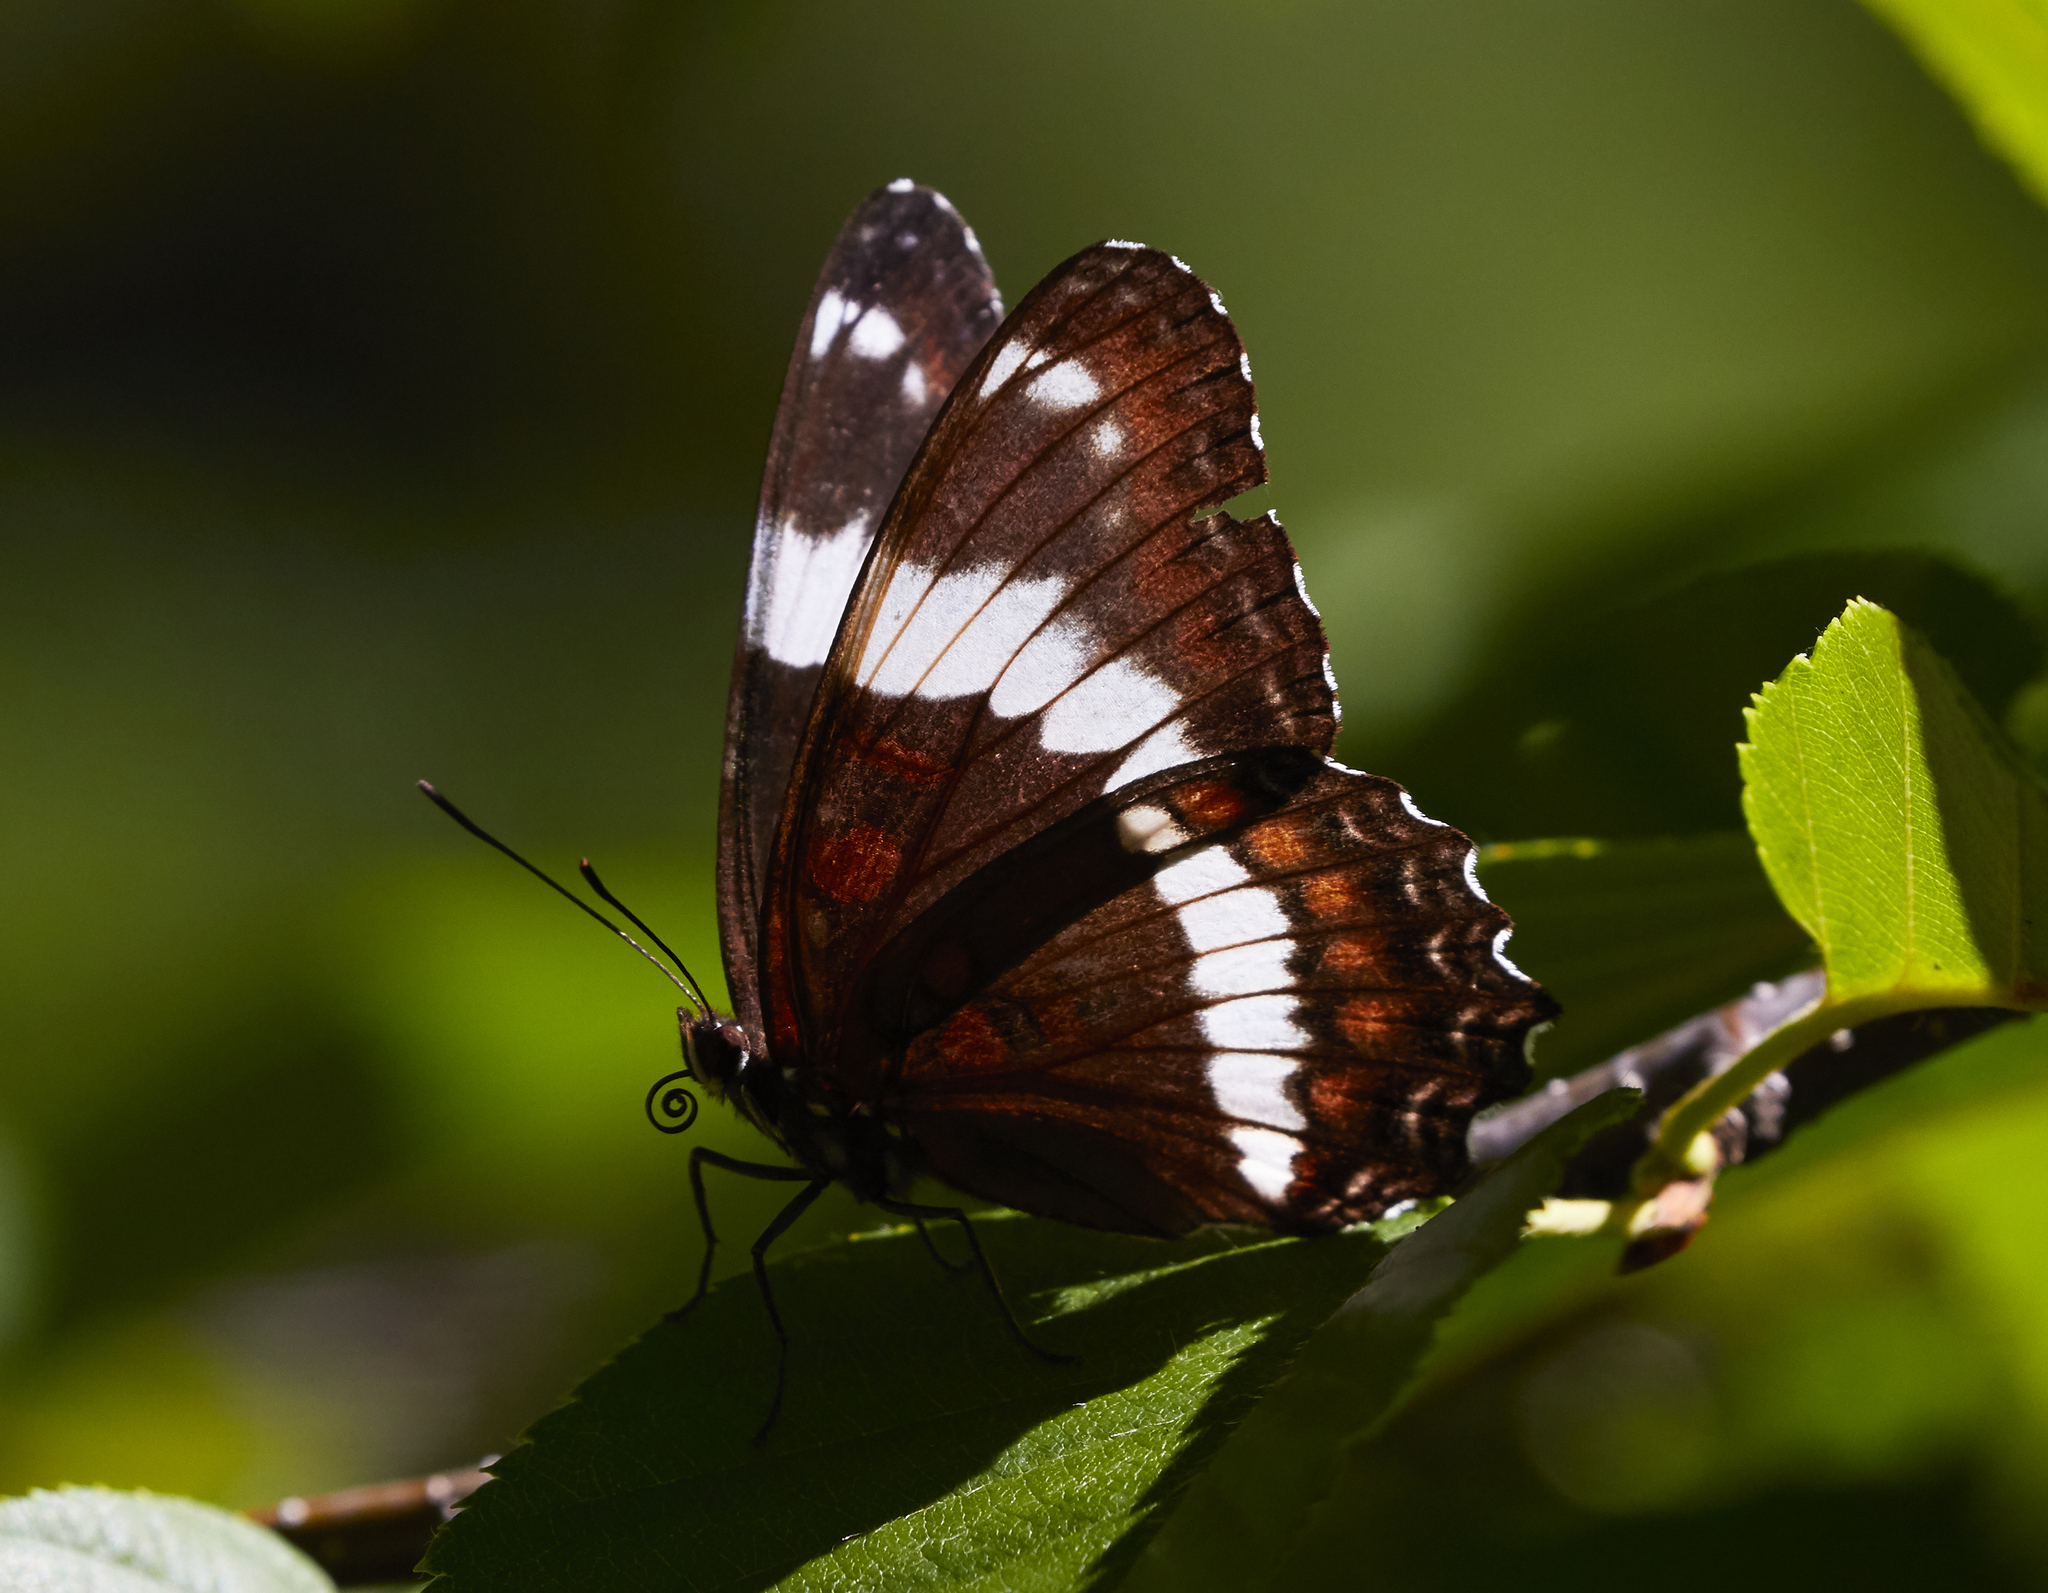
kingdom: Animalia
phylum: Arthropoda
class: Insecta
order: Lepidoptera
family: Nymphalidae
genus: Limenitis
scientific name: Limenitis arthemis
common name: Red-spotted admiral
